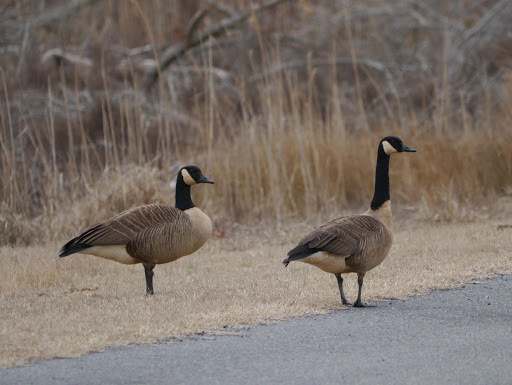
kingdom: Animalia
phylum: Chordata
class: Aves
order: Anseriformes
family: Anatidae
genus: Branta
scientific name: Branta canadensis
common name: Canada goose
